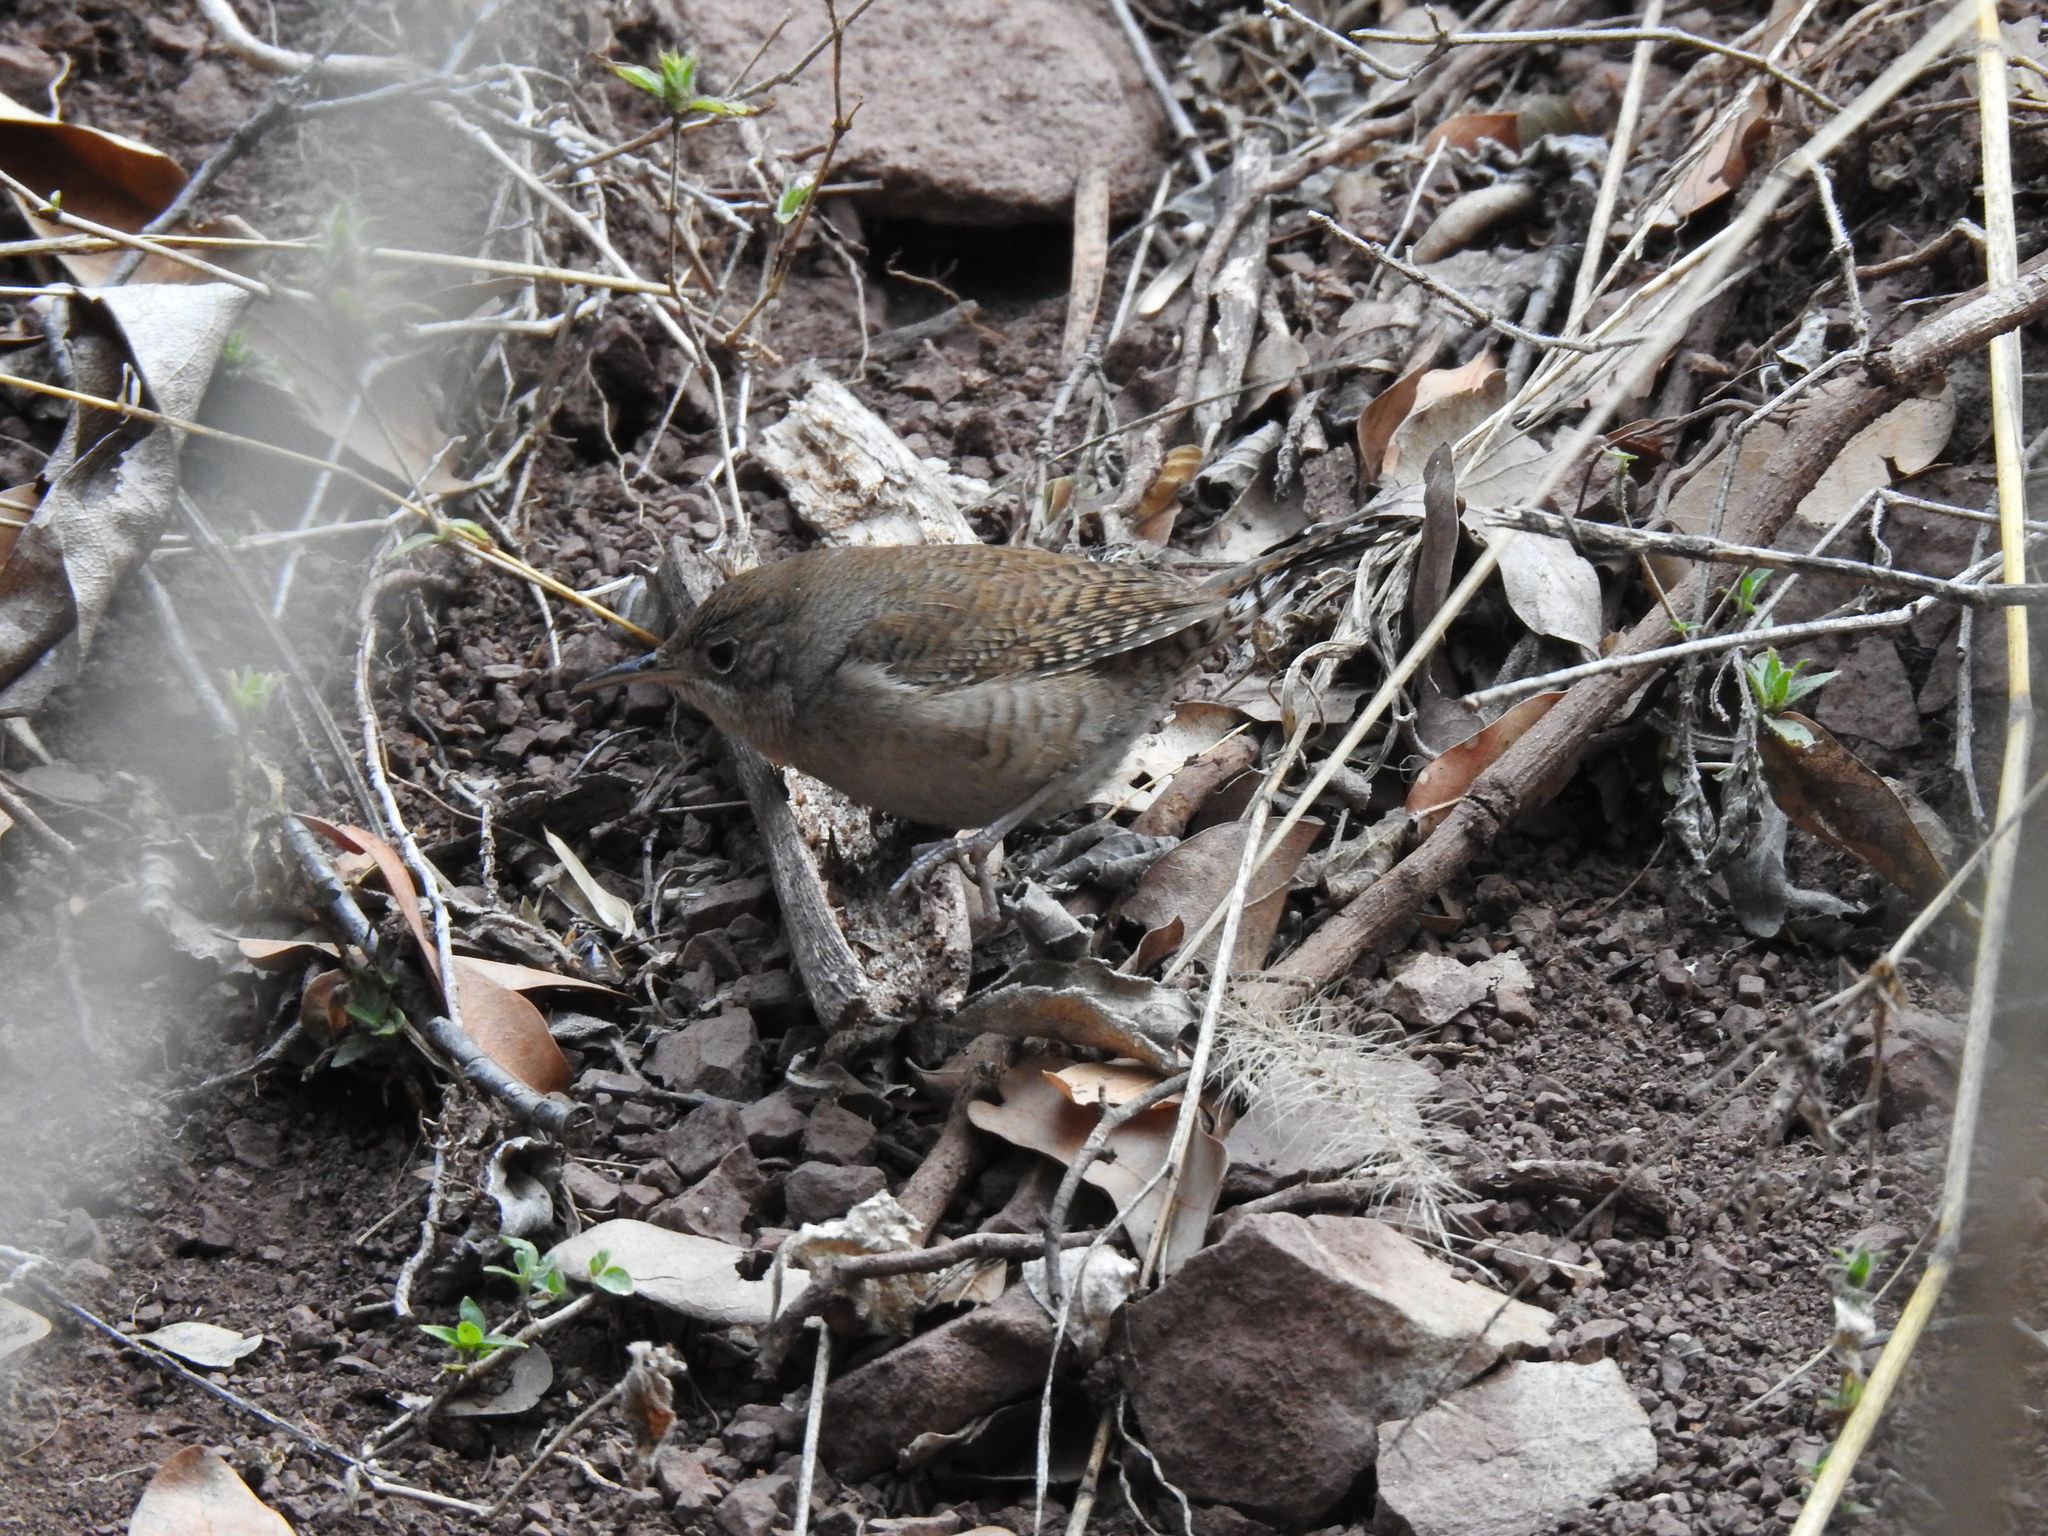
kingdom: Animalia
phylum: Chordata
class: Aves
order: Passeriformes
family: Troglodytidae
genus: Troglodytes
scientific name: Troglodytes aedon
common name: House wren
